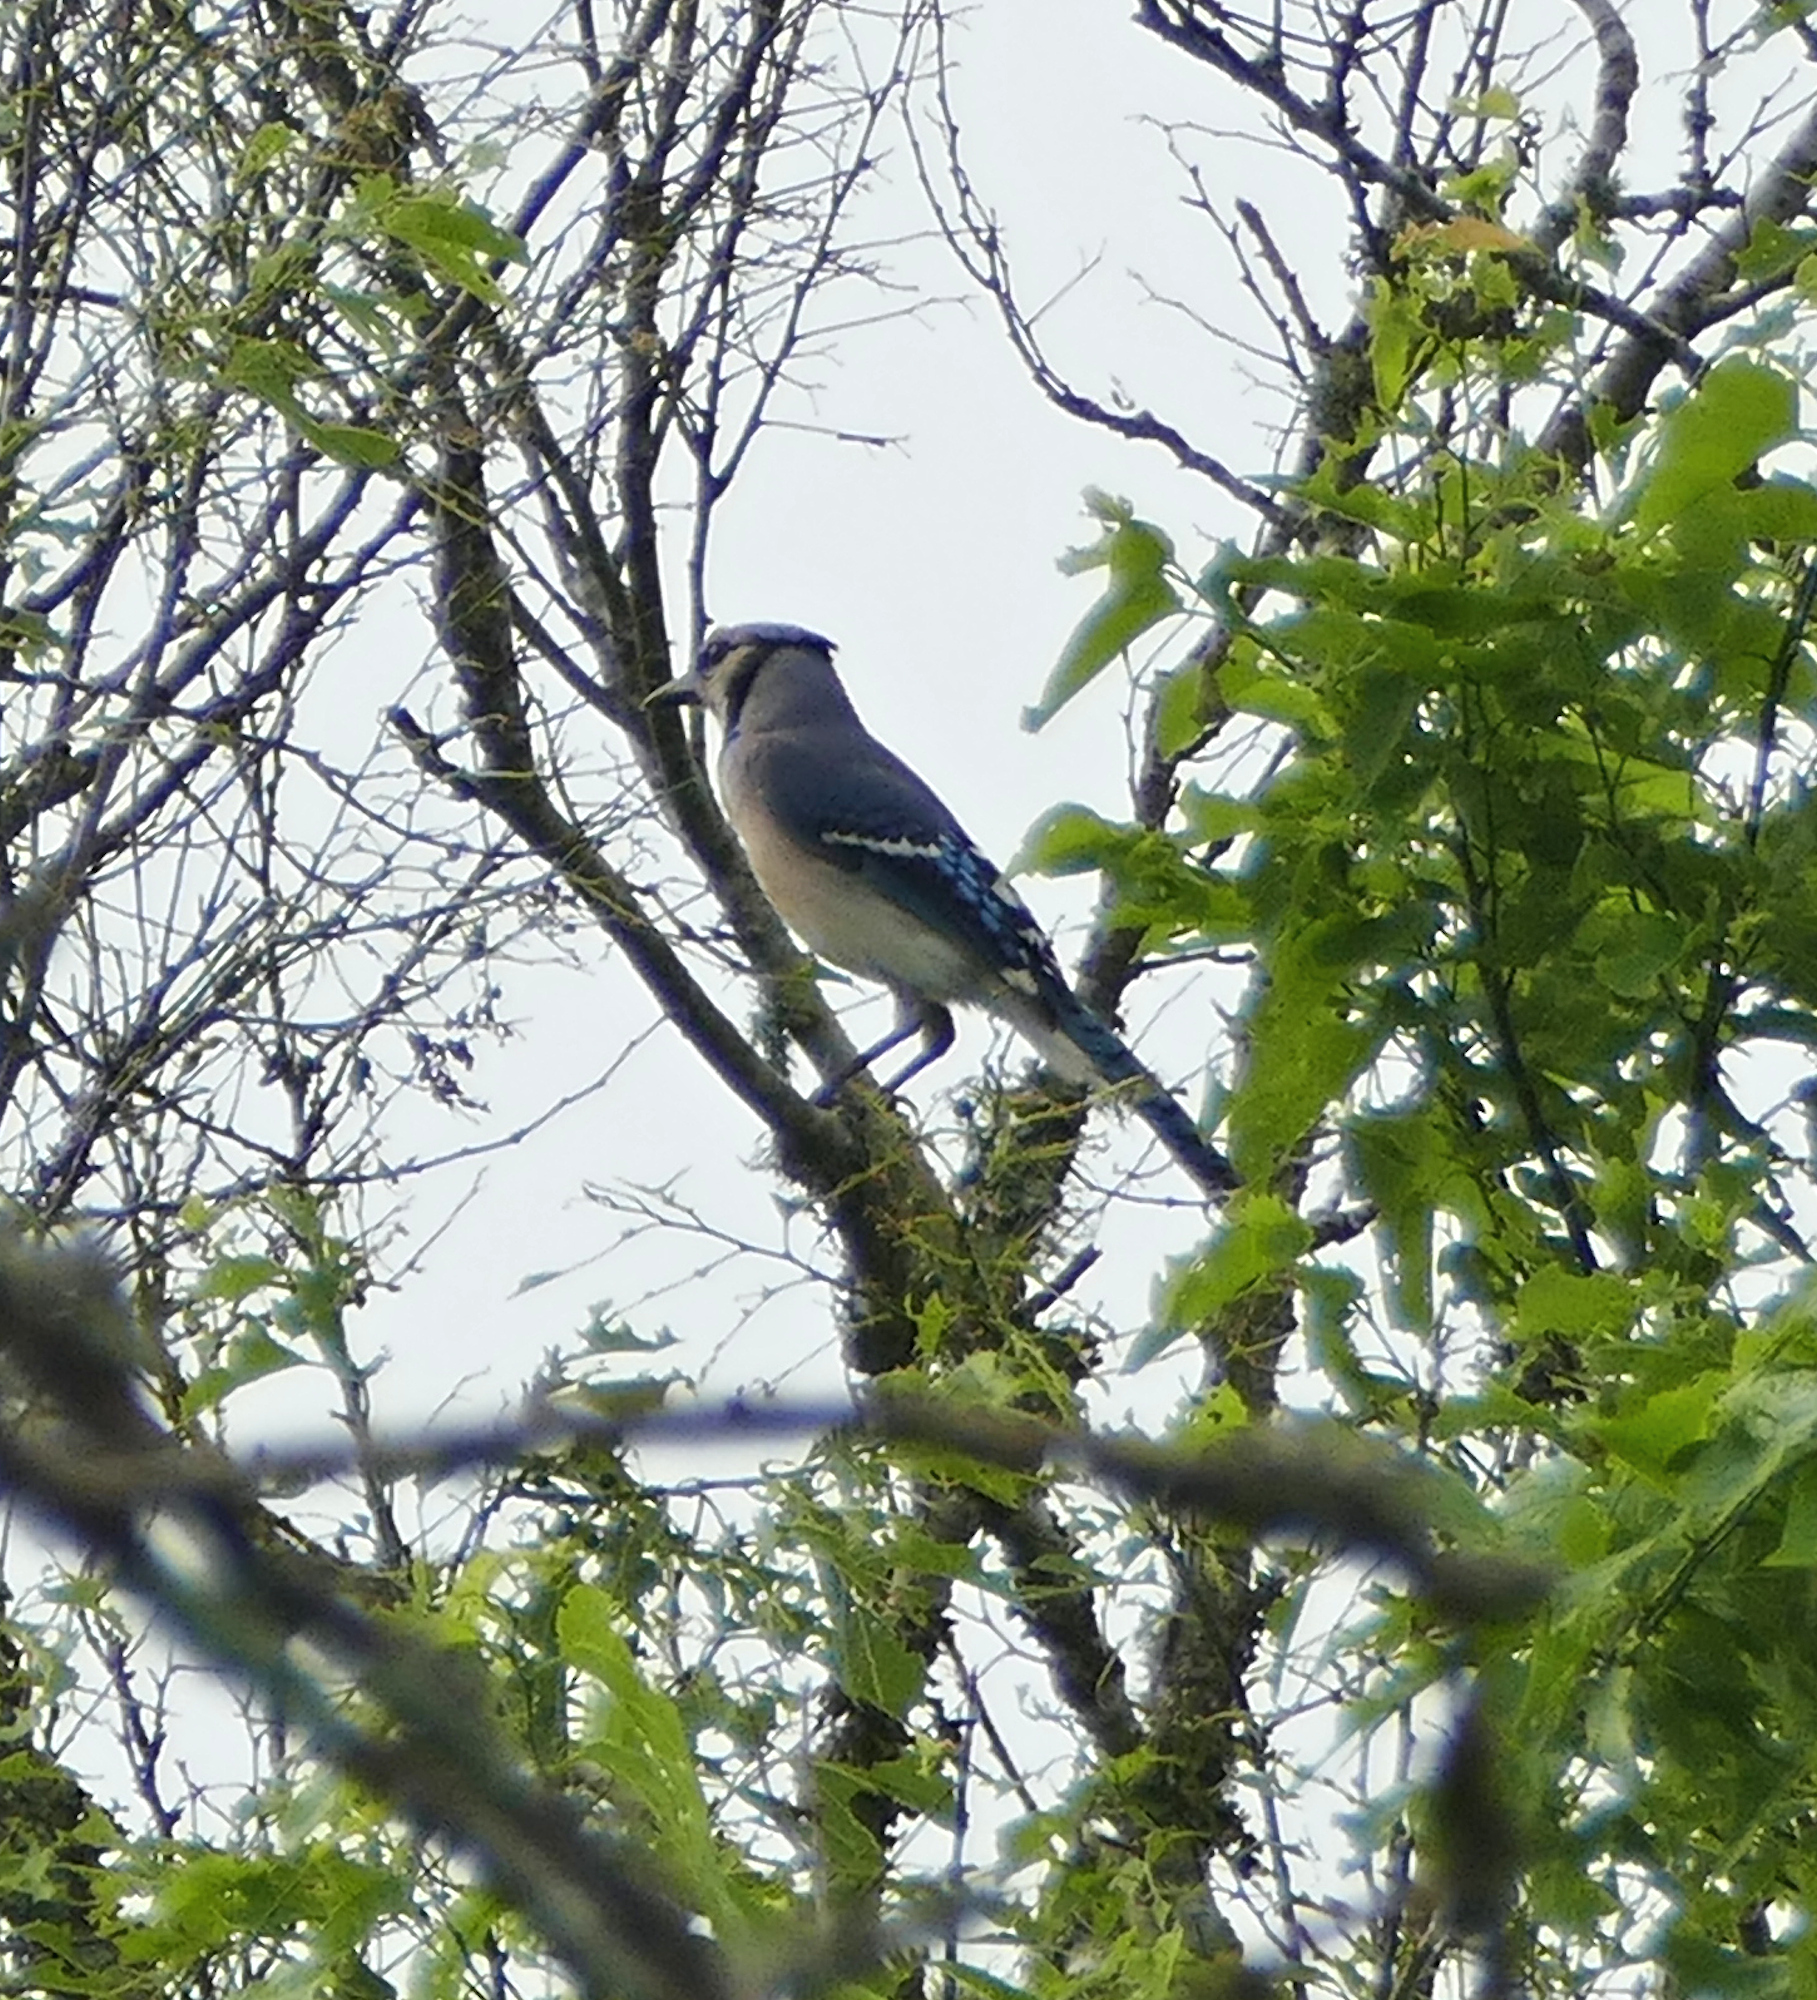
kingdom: Animalia
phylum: Chordata
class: Aves
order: Passeriformes
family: Corvidae
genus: Cyanocitta
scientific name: Cyanocitta cristata
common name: Blue jay
